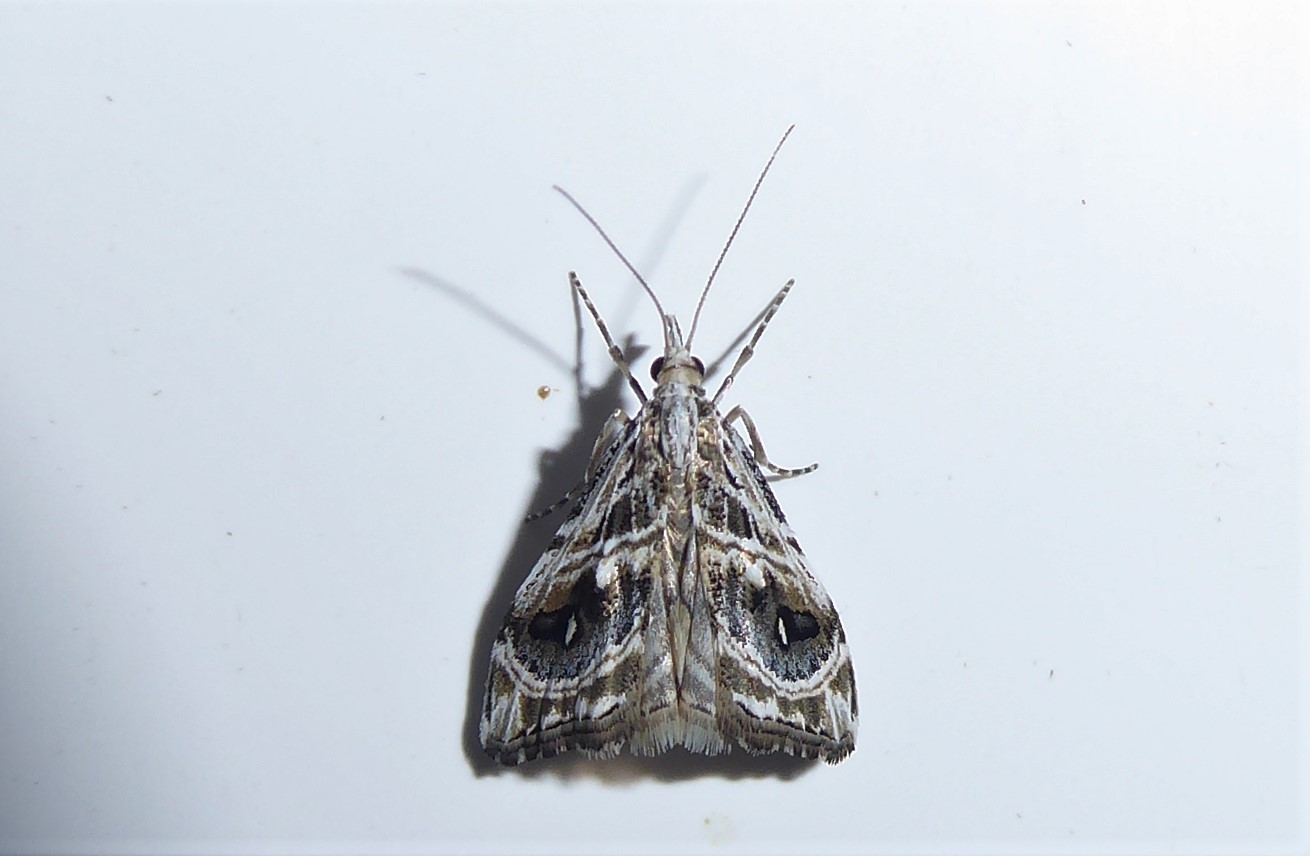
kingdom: Animalia
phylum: Arthropoda
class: Insecta
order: Lepidoptera
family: Crambidae
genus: Gadira
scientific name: Gadira acerella
